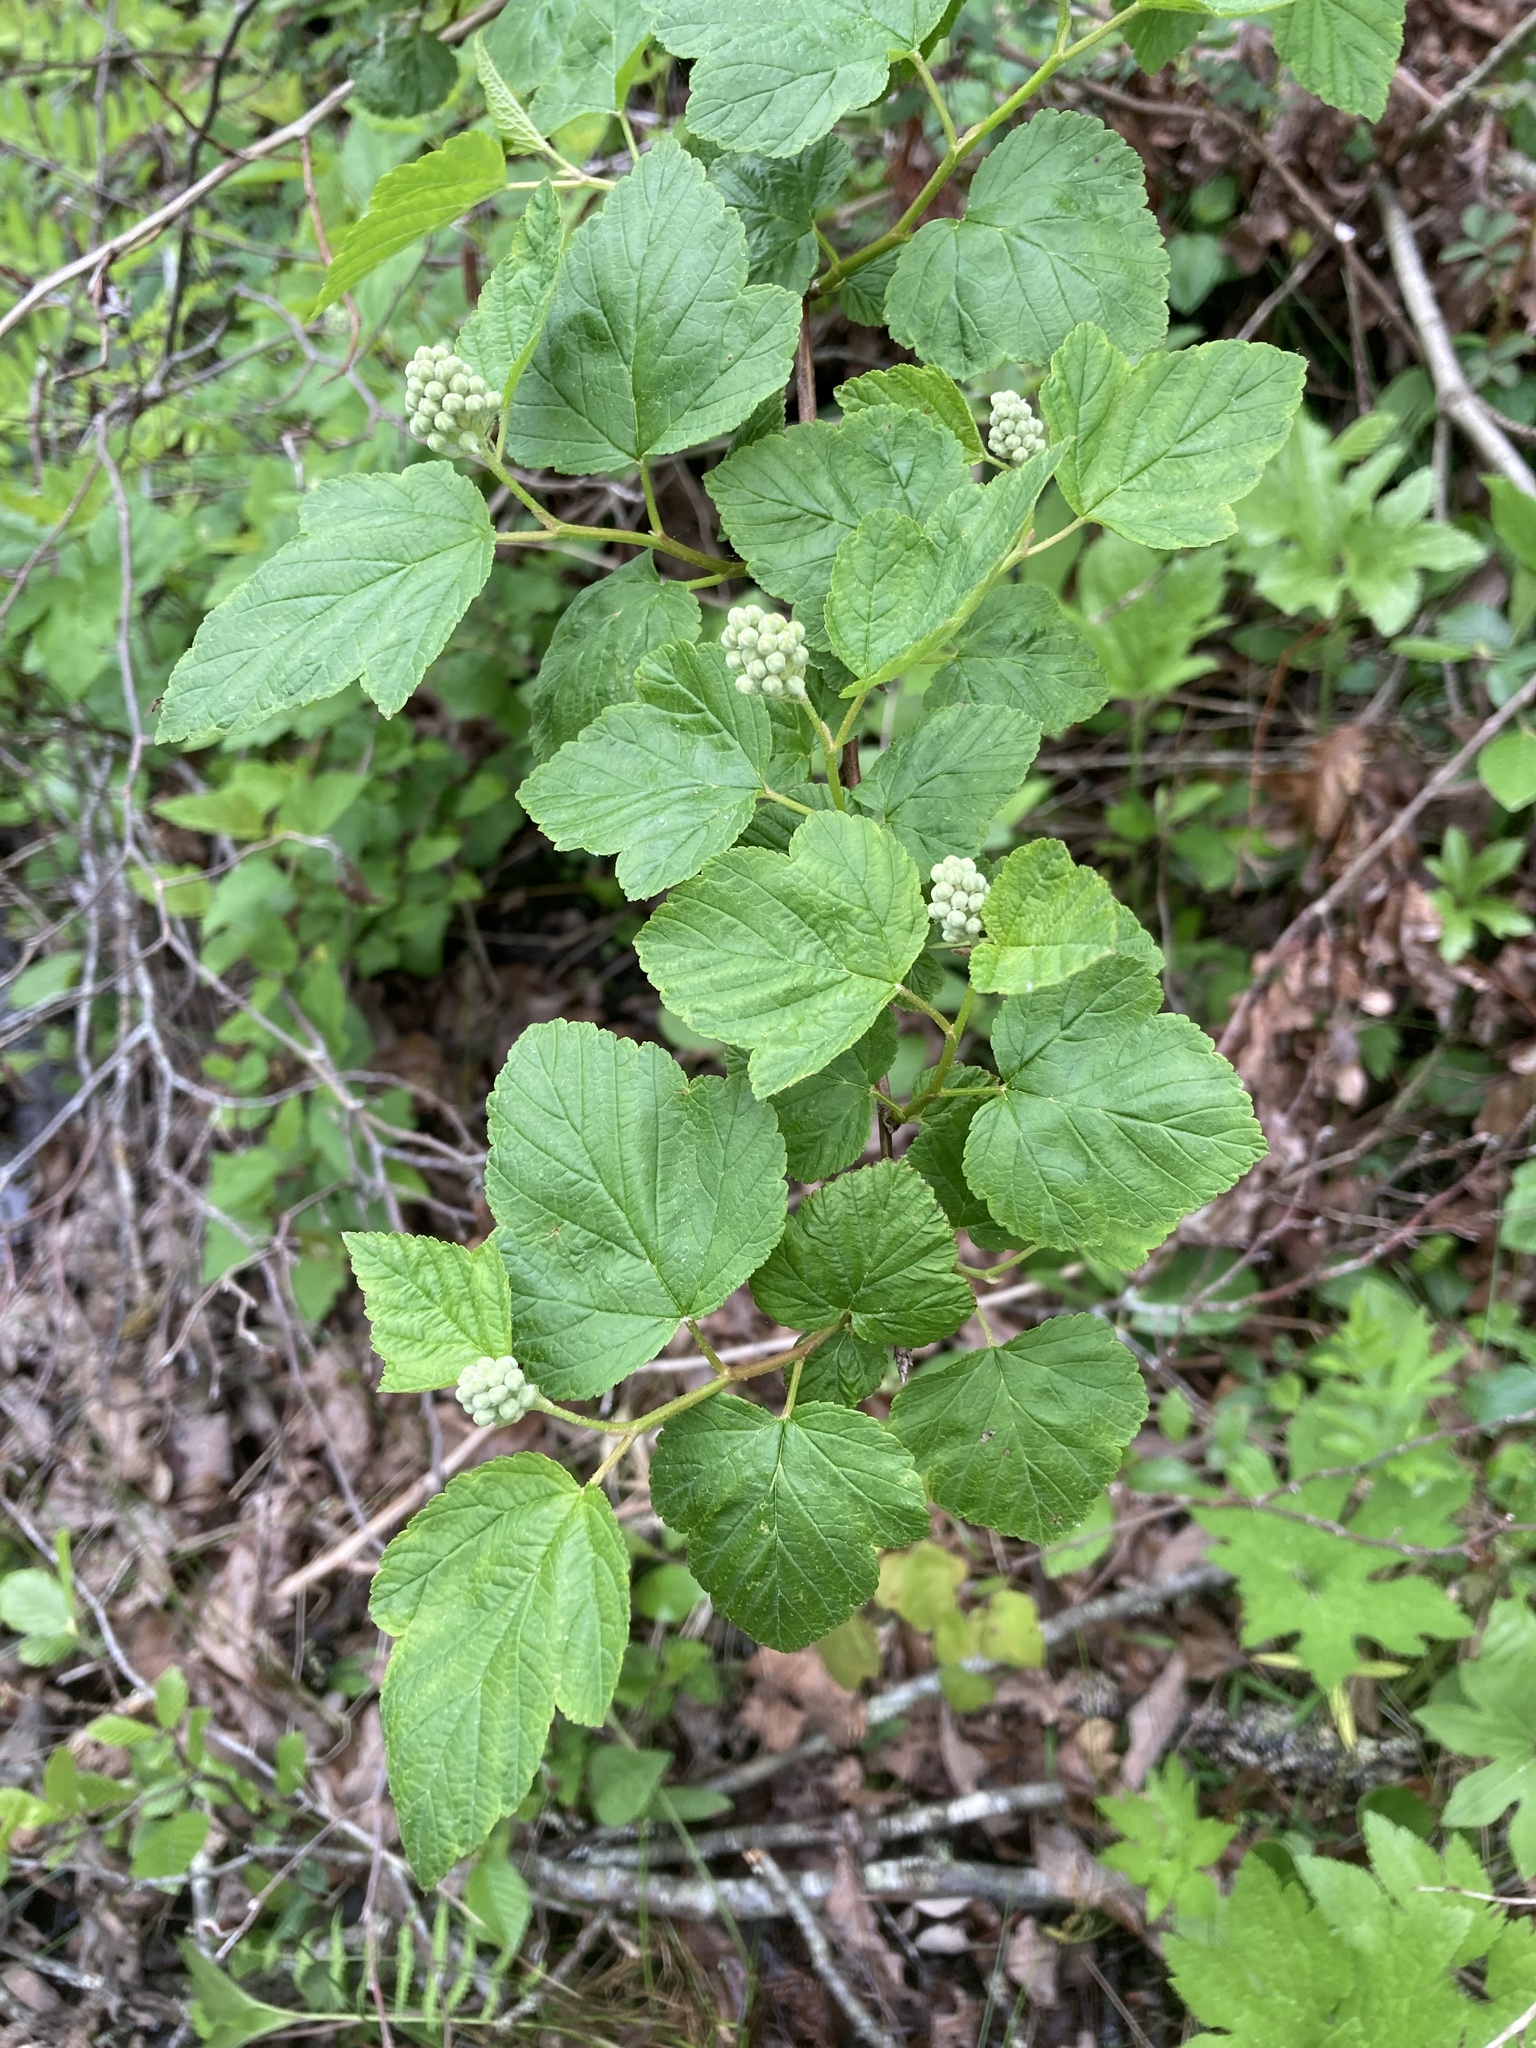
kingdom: Plantae
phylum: Tracheophyta
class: Magnoliopsida
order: Rosales
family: Rosaceae
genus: Physocarpus
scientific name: Physocarpus opulifolius
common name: Ninebark
